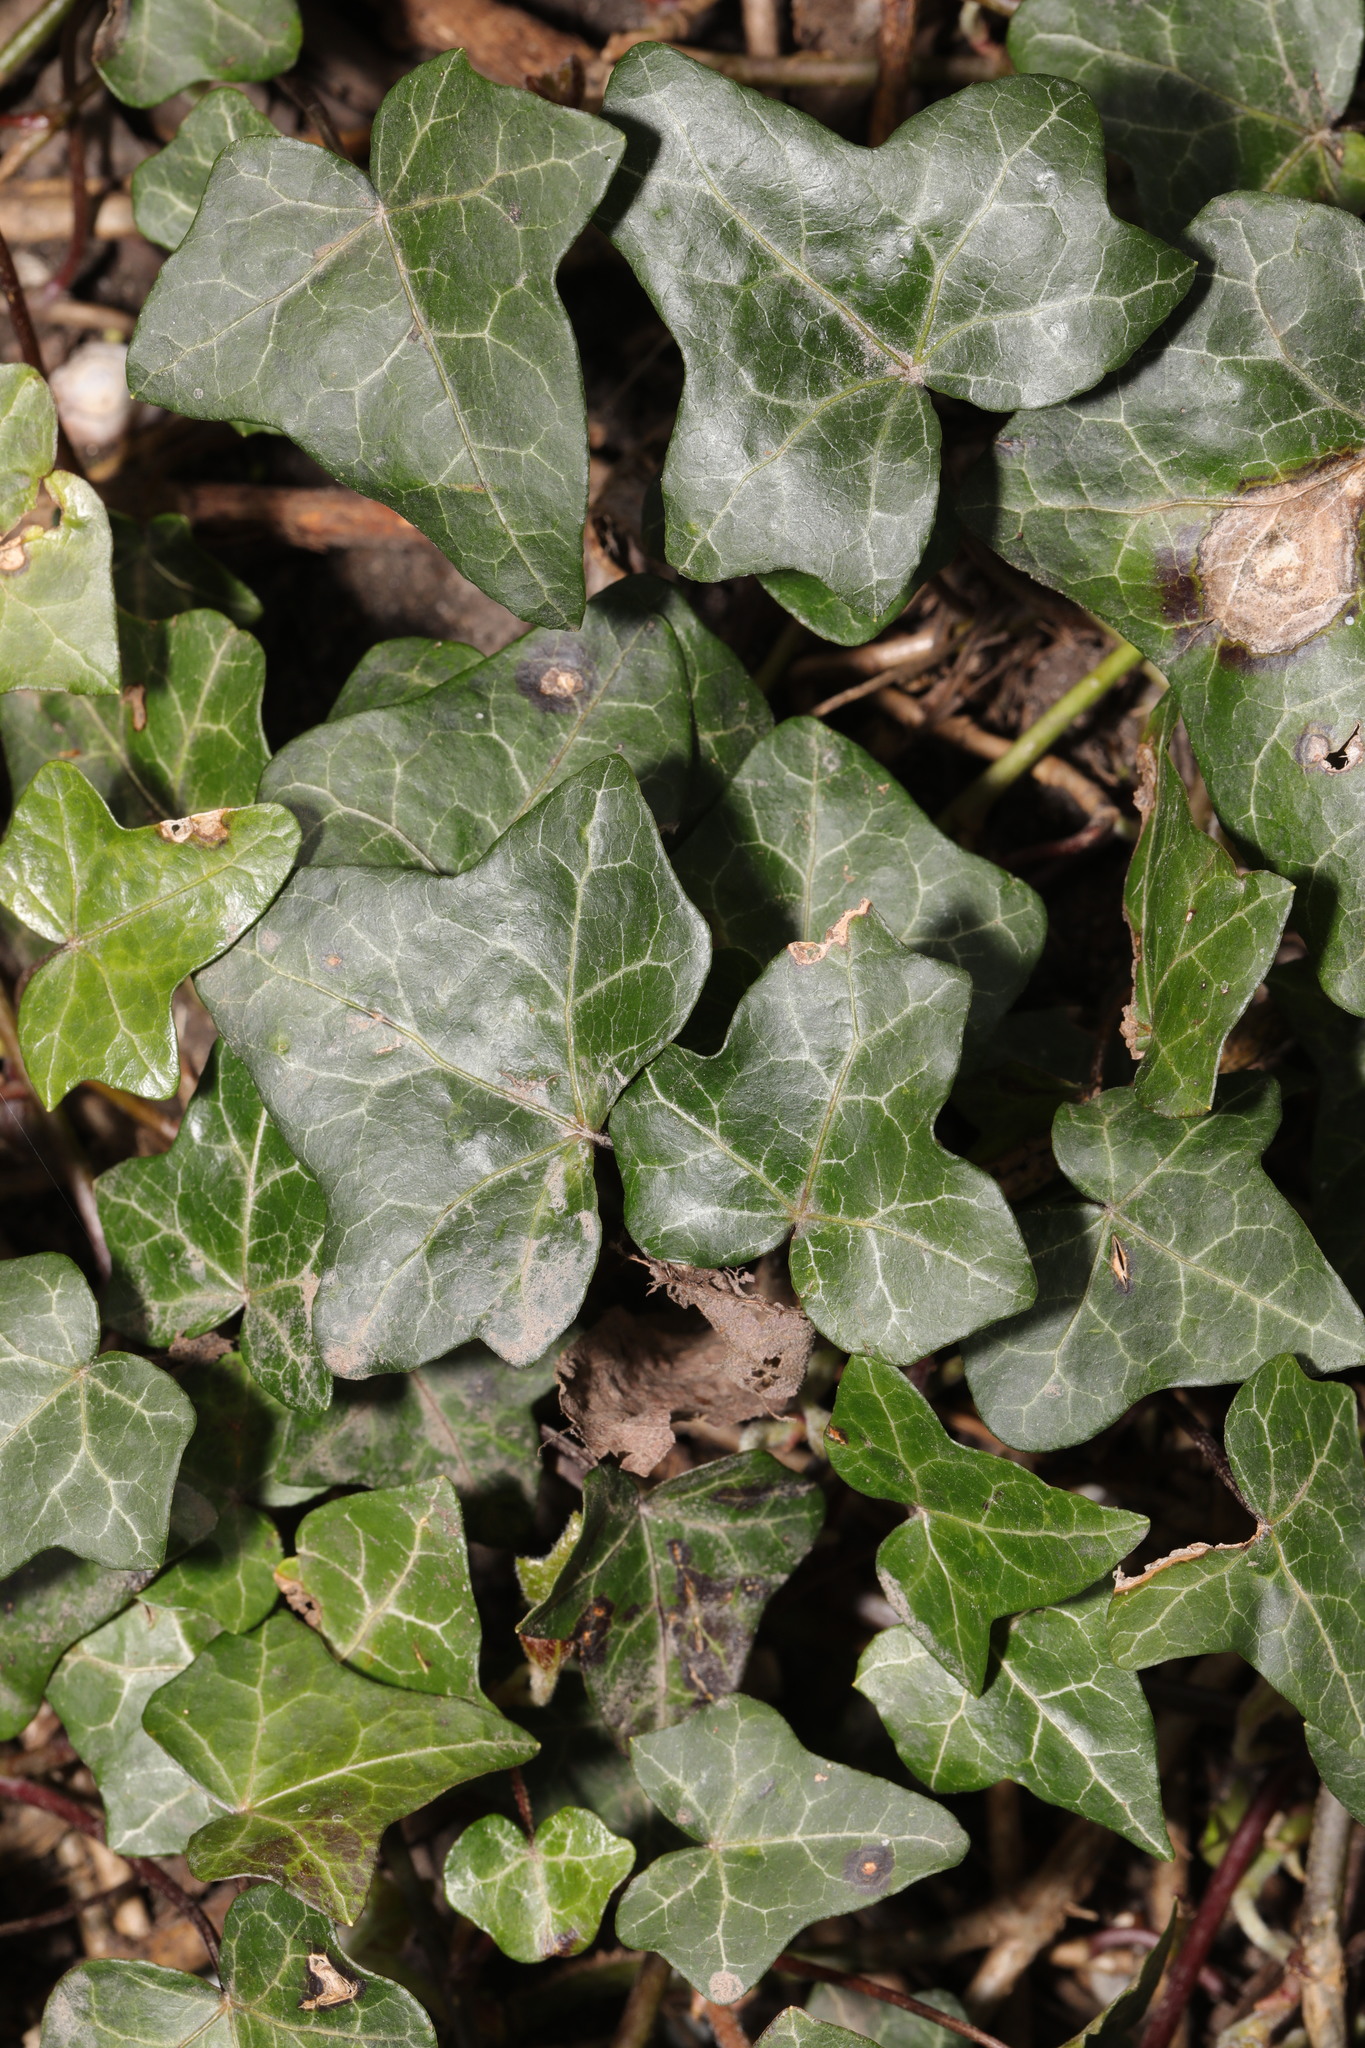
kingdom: Plantae
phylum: Tracheophyta
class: Magnoliopsida
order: Apiales
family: Araliaceae
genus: Hedera
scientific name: Hedera helix
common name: Ivy
